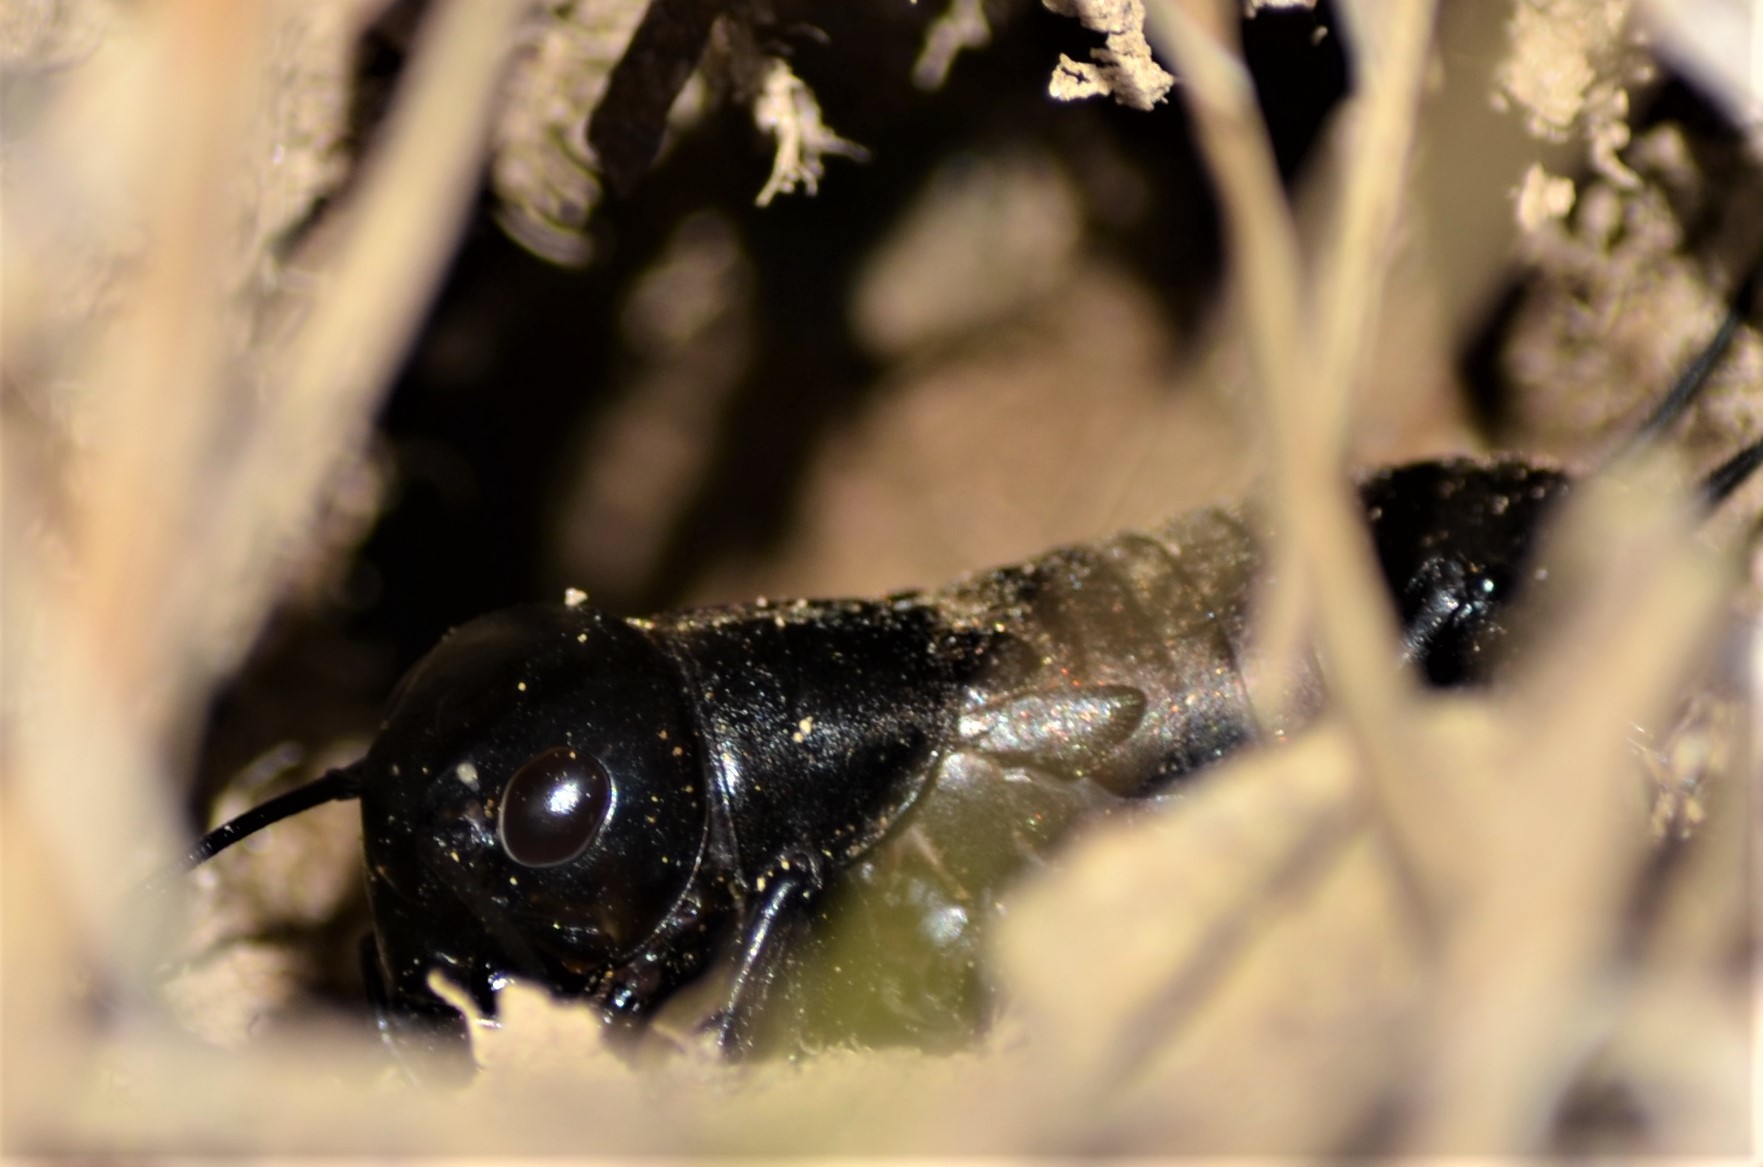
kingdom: Animalia
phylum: Arthropoda
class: Insecta
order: Orthoptera
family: Gryllidae
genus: Gryllus
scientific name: Gryllus campestris
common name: Field cricket
